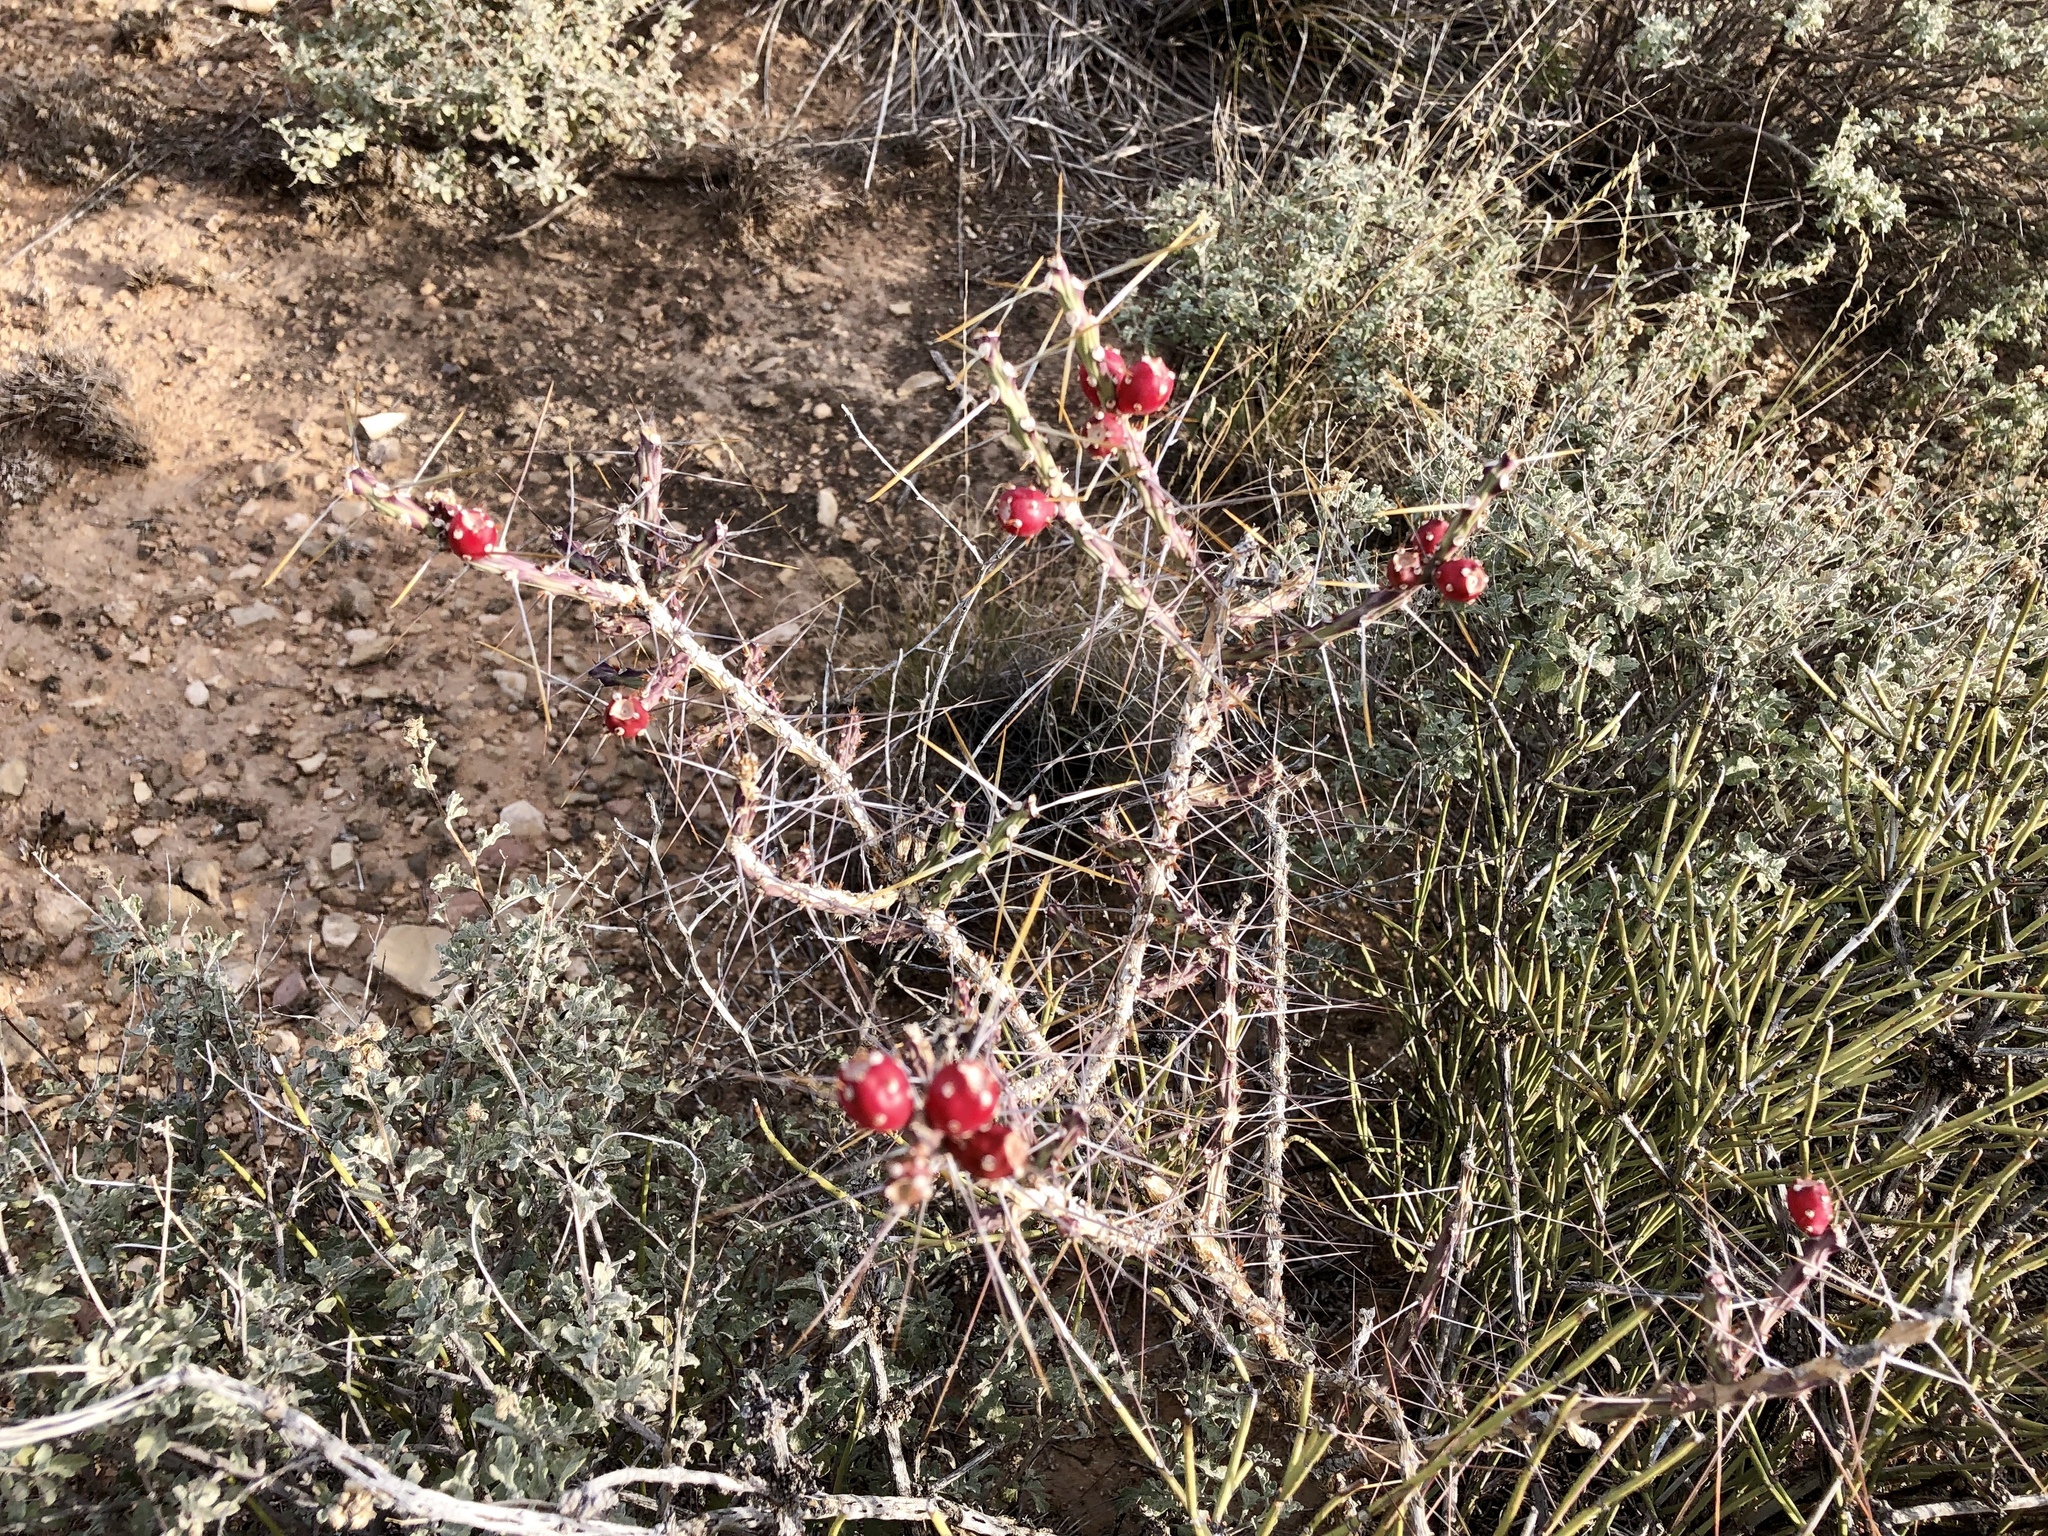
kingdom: Plantae
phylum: Tracheophyta
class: Magnoliopsida
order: Caryophyllales
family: Cactaceae
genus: Cylindropuntia
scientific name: Cylindropuntia leptocaulis
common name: Christmas cactus
